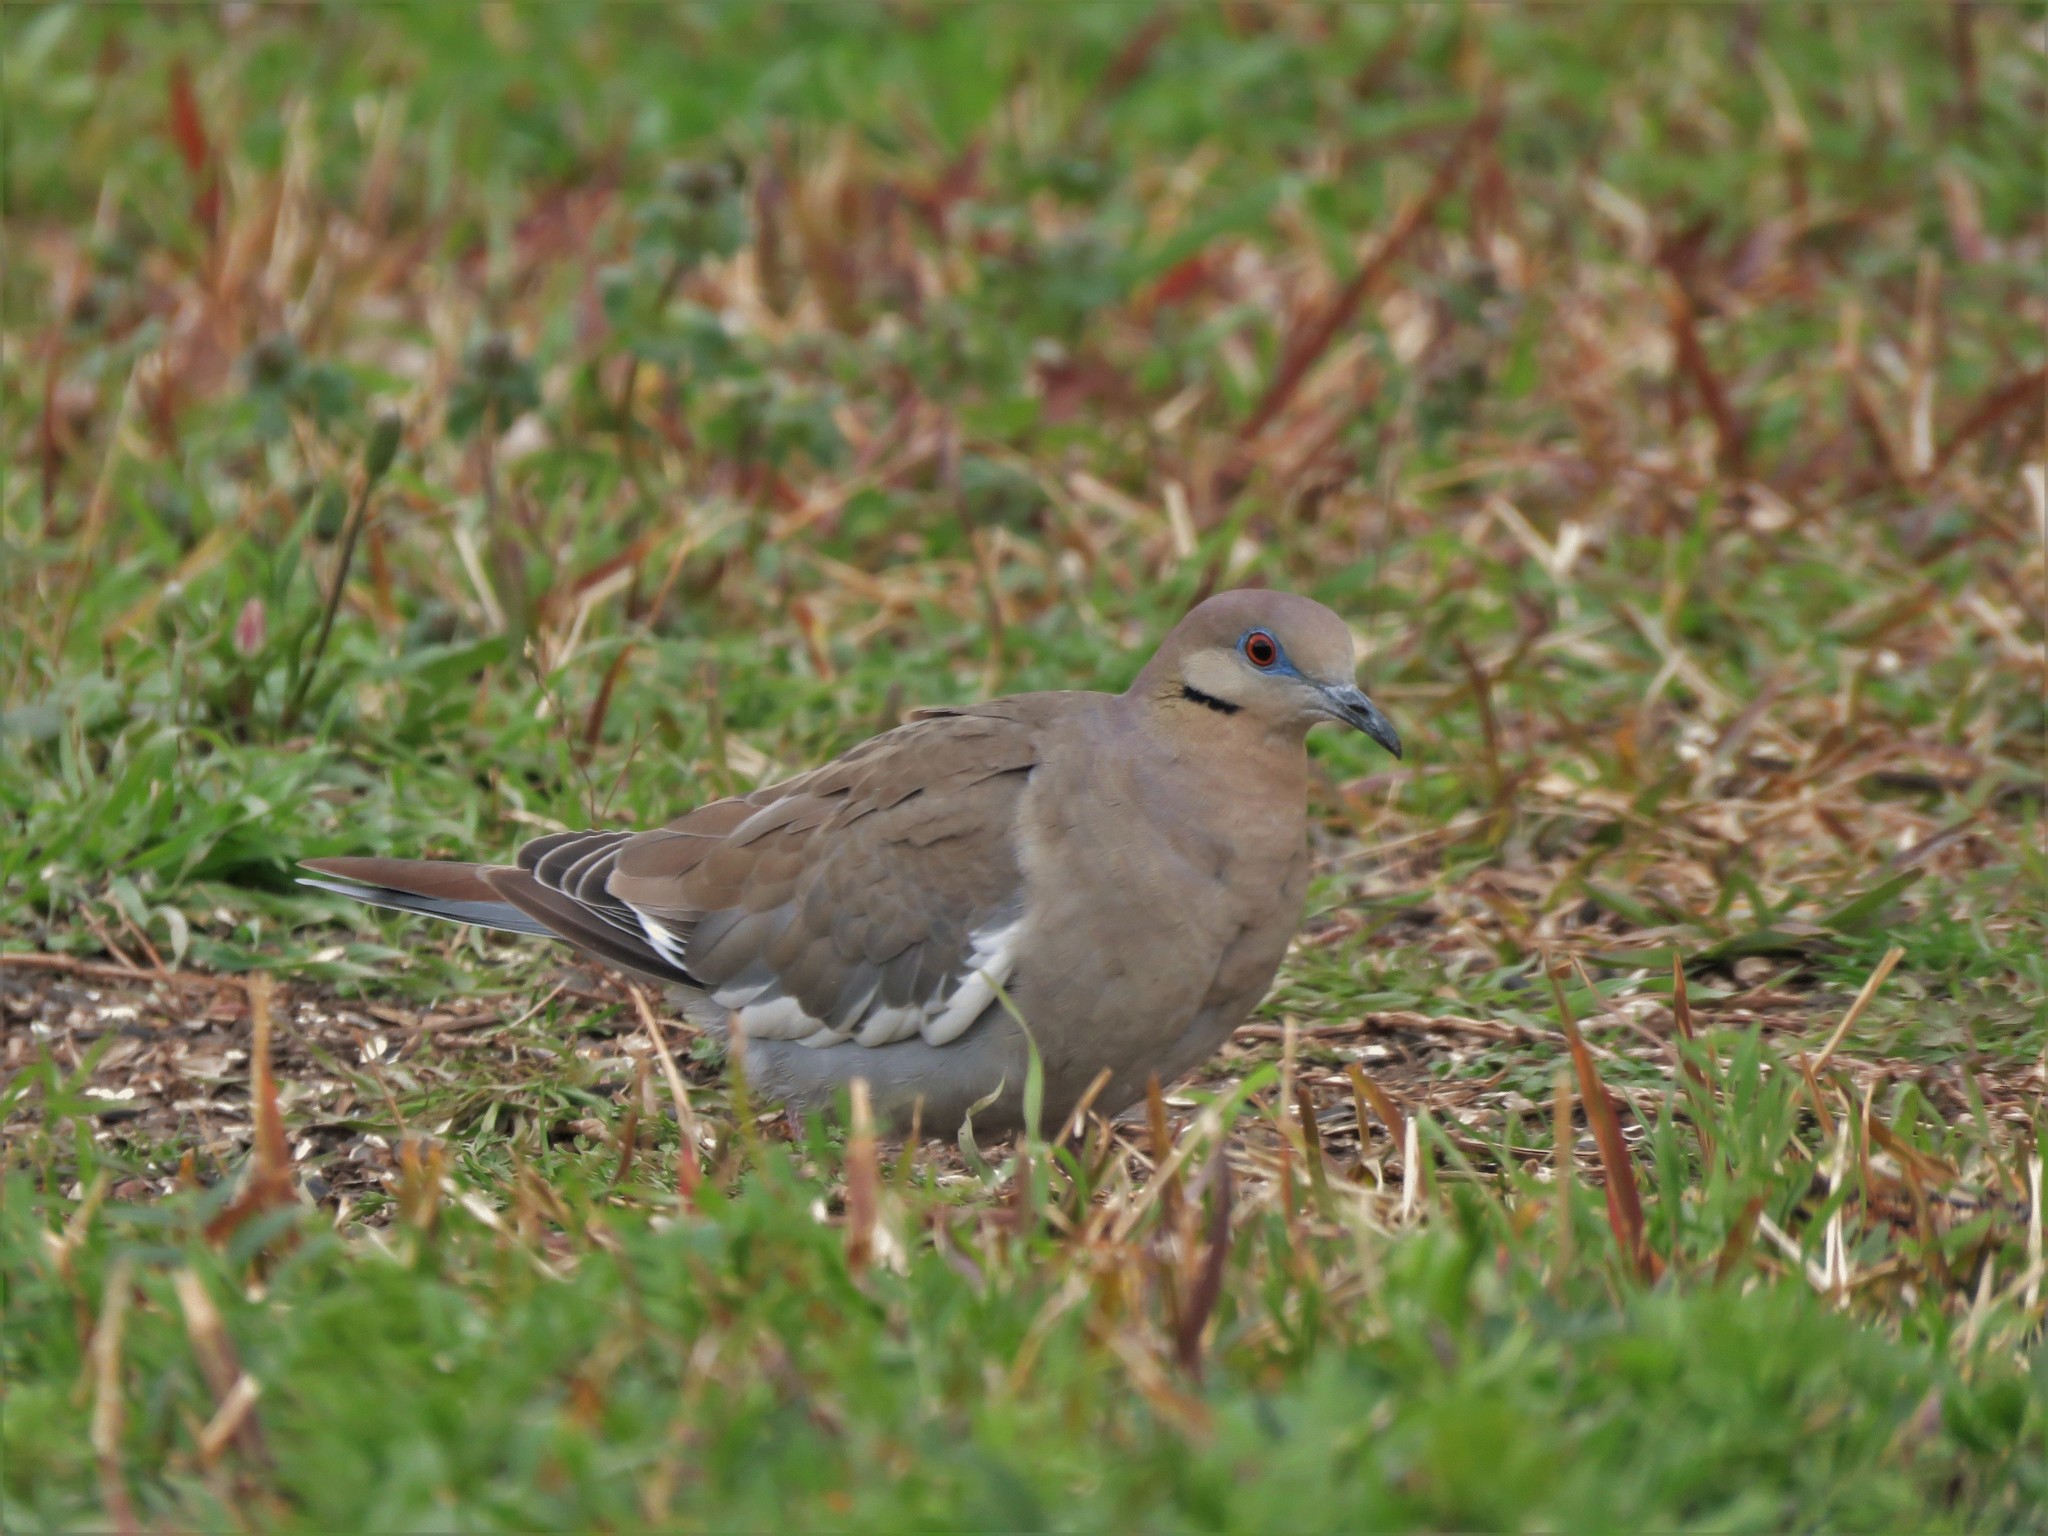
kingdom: Animalia
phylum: Chordata
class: Aves
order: Columbiformes
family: Columbidae
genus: Zenaida
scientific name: Zenaida asiatica
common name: White-winged dove
